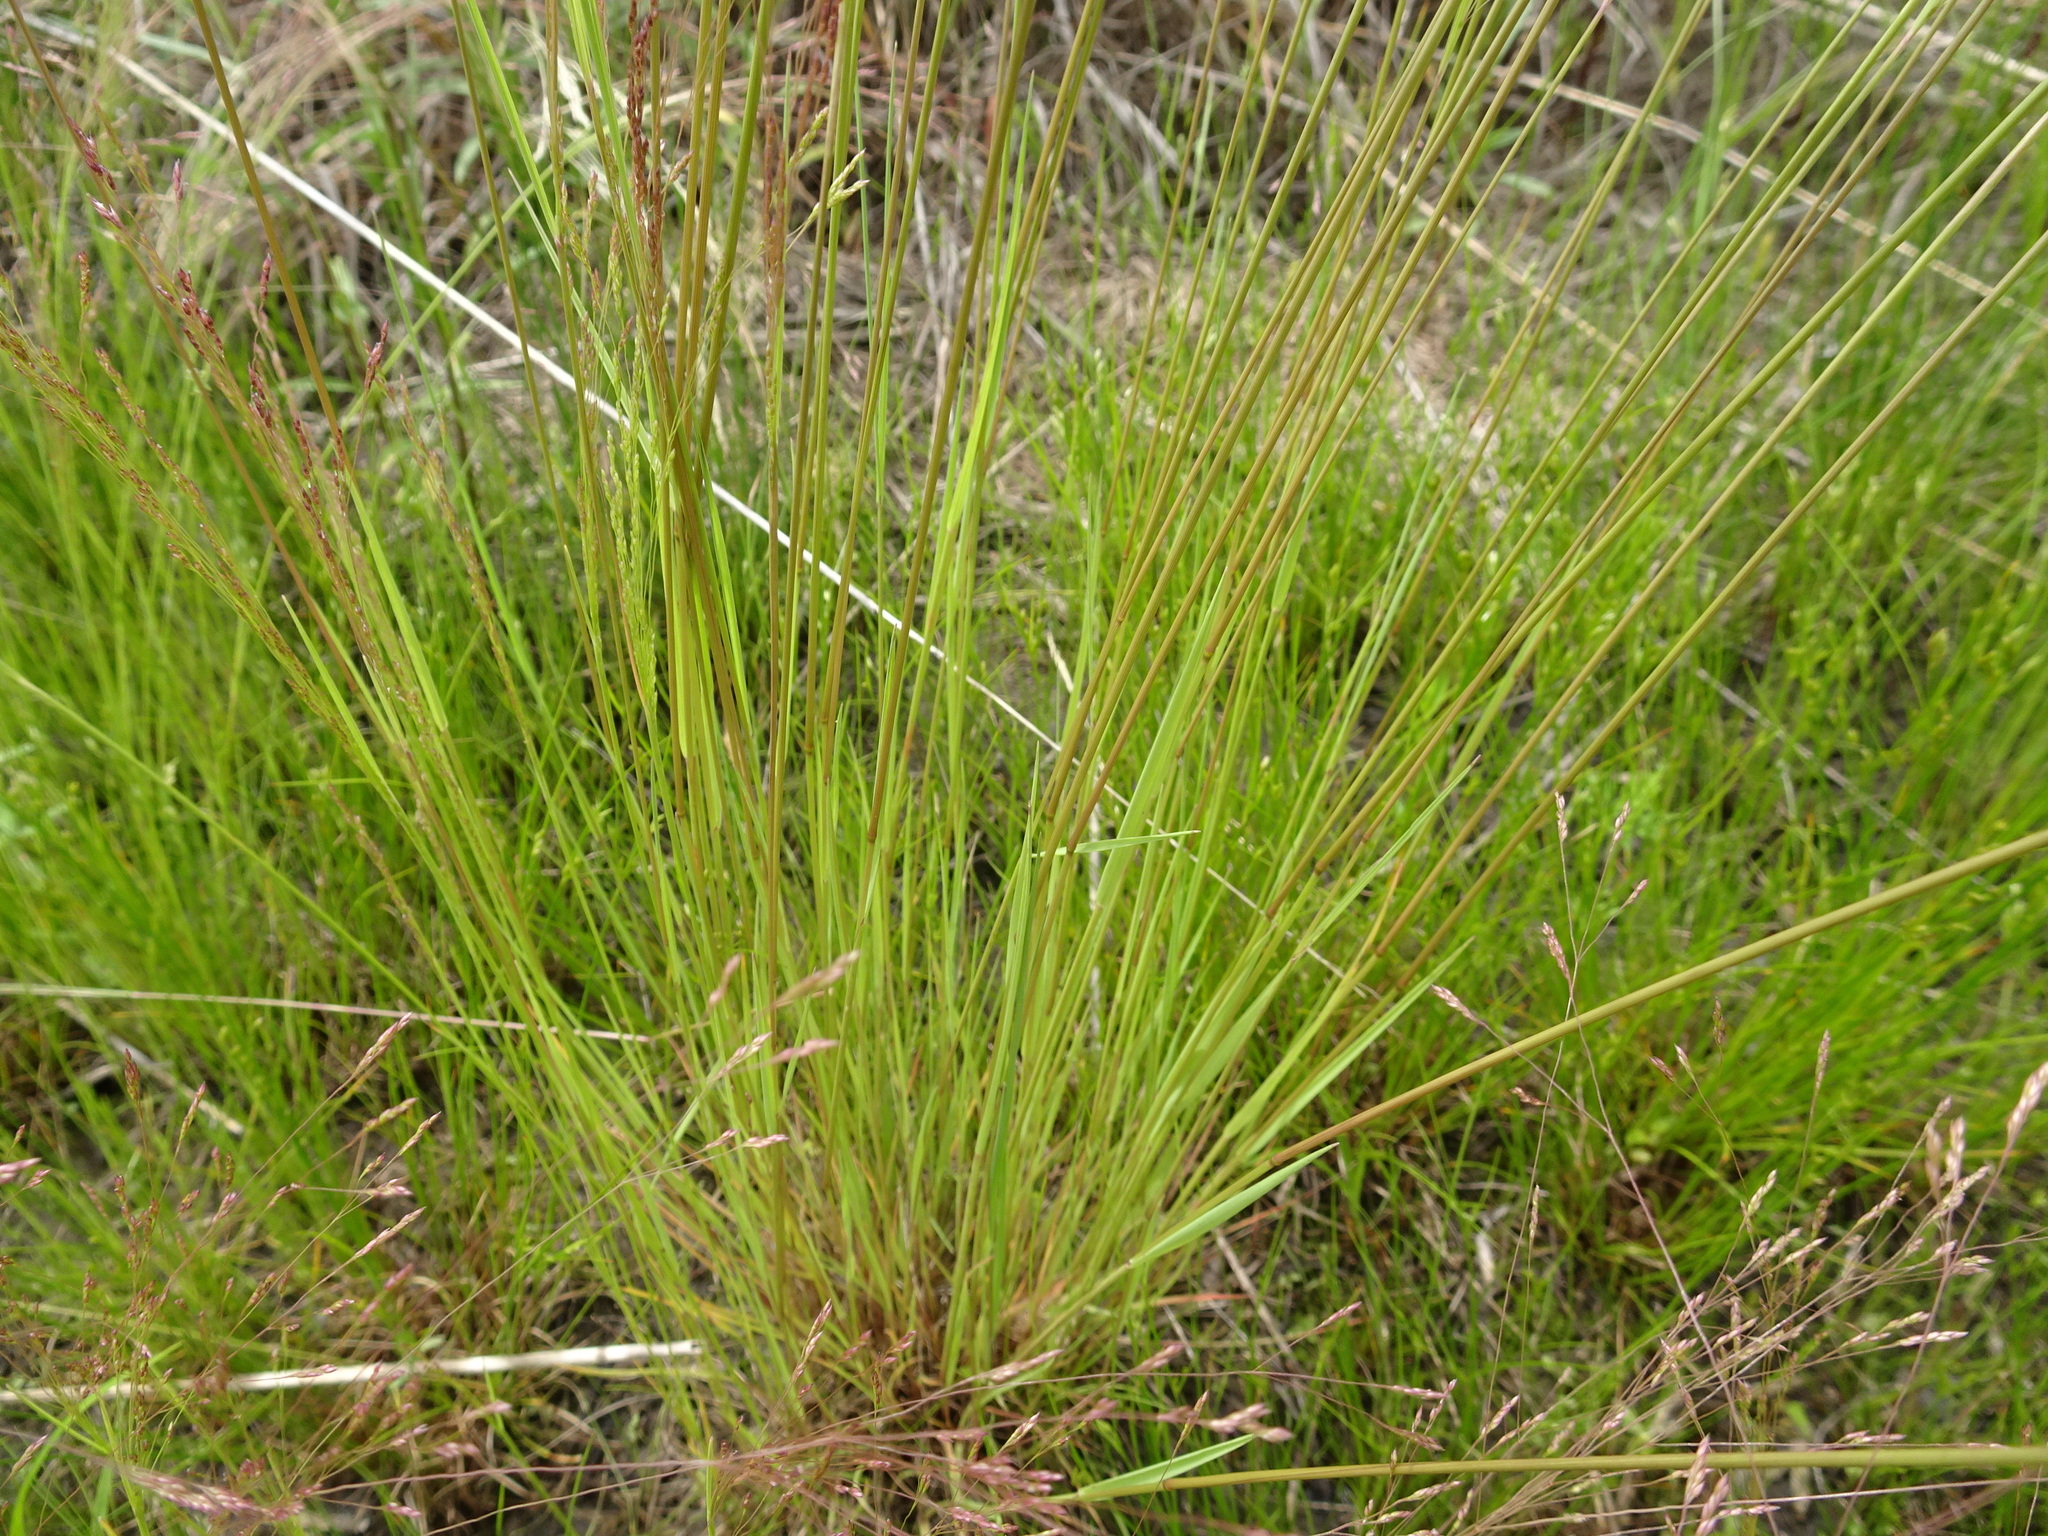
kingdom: Plantae
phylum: Tracheophyta
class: Liliopsida
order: Poales
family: Poaceae
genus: Agrostis
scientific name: Agrostis hyemalis
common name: Small bent
